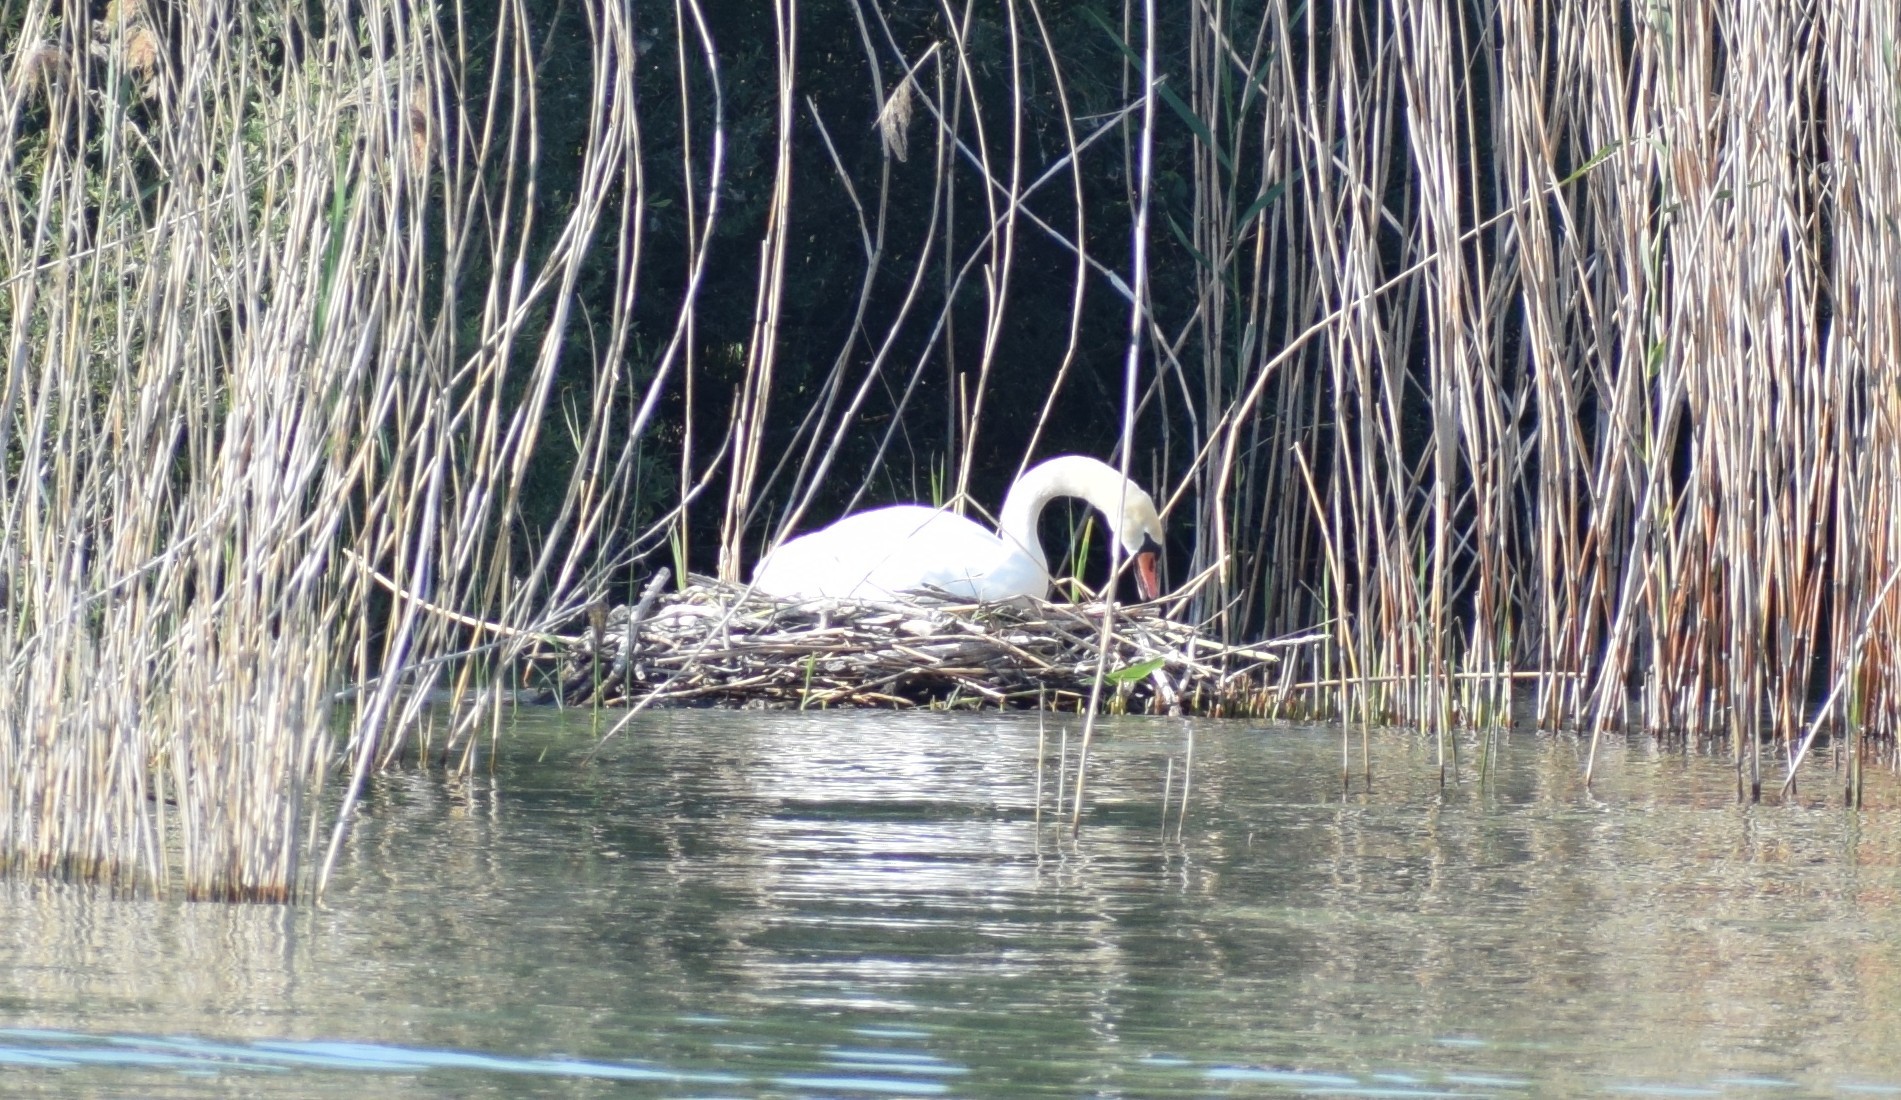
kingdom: Animalia
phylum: Chordata
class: Aves
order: Anseriformes
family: Anatidae
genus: Cygnus
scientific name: Cygnus olor
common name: Mute swan
